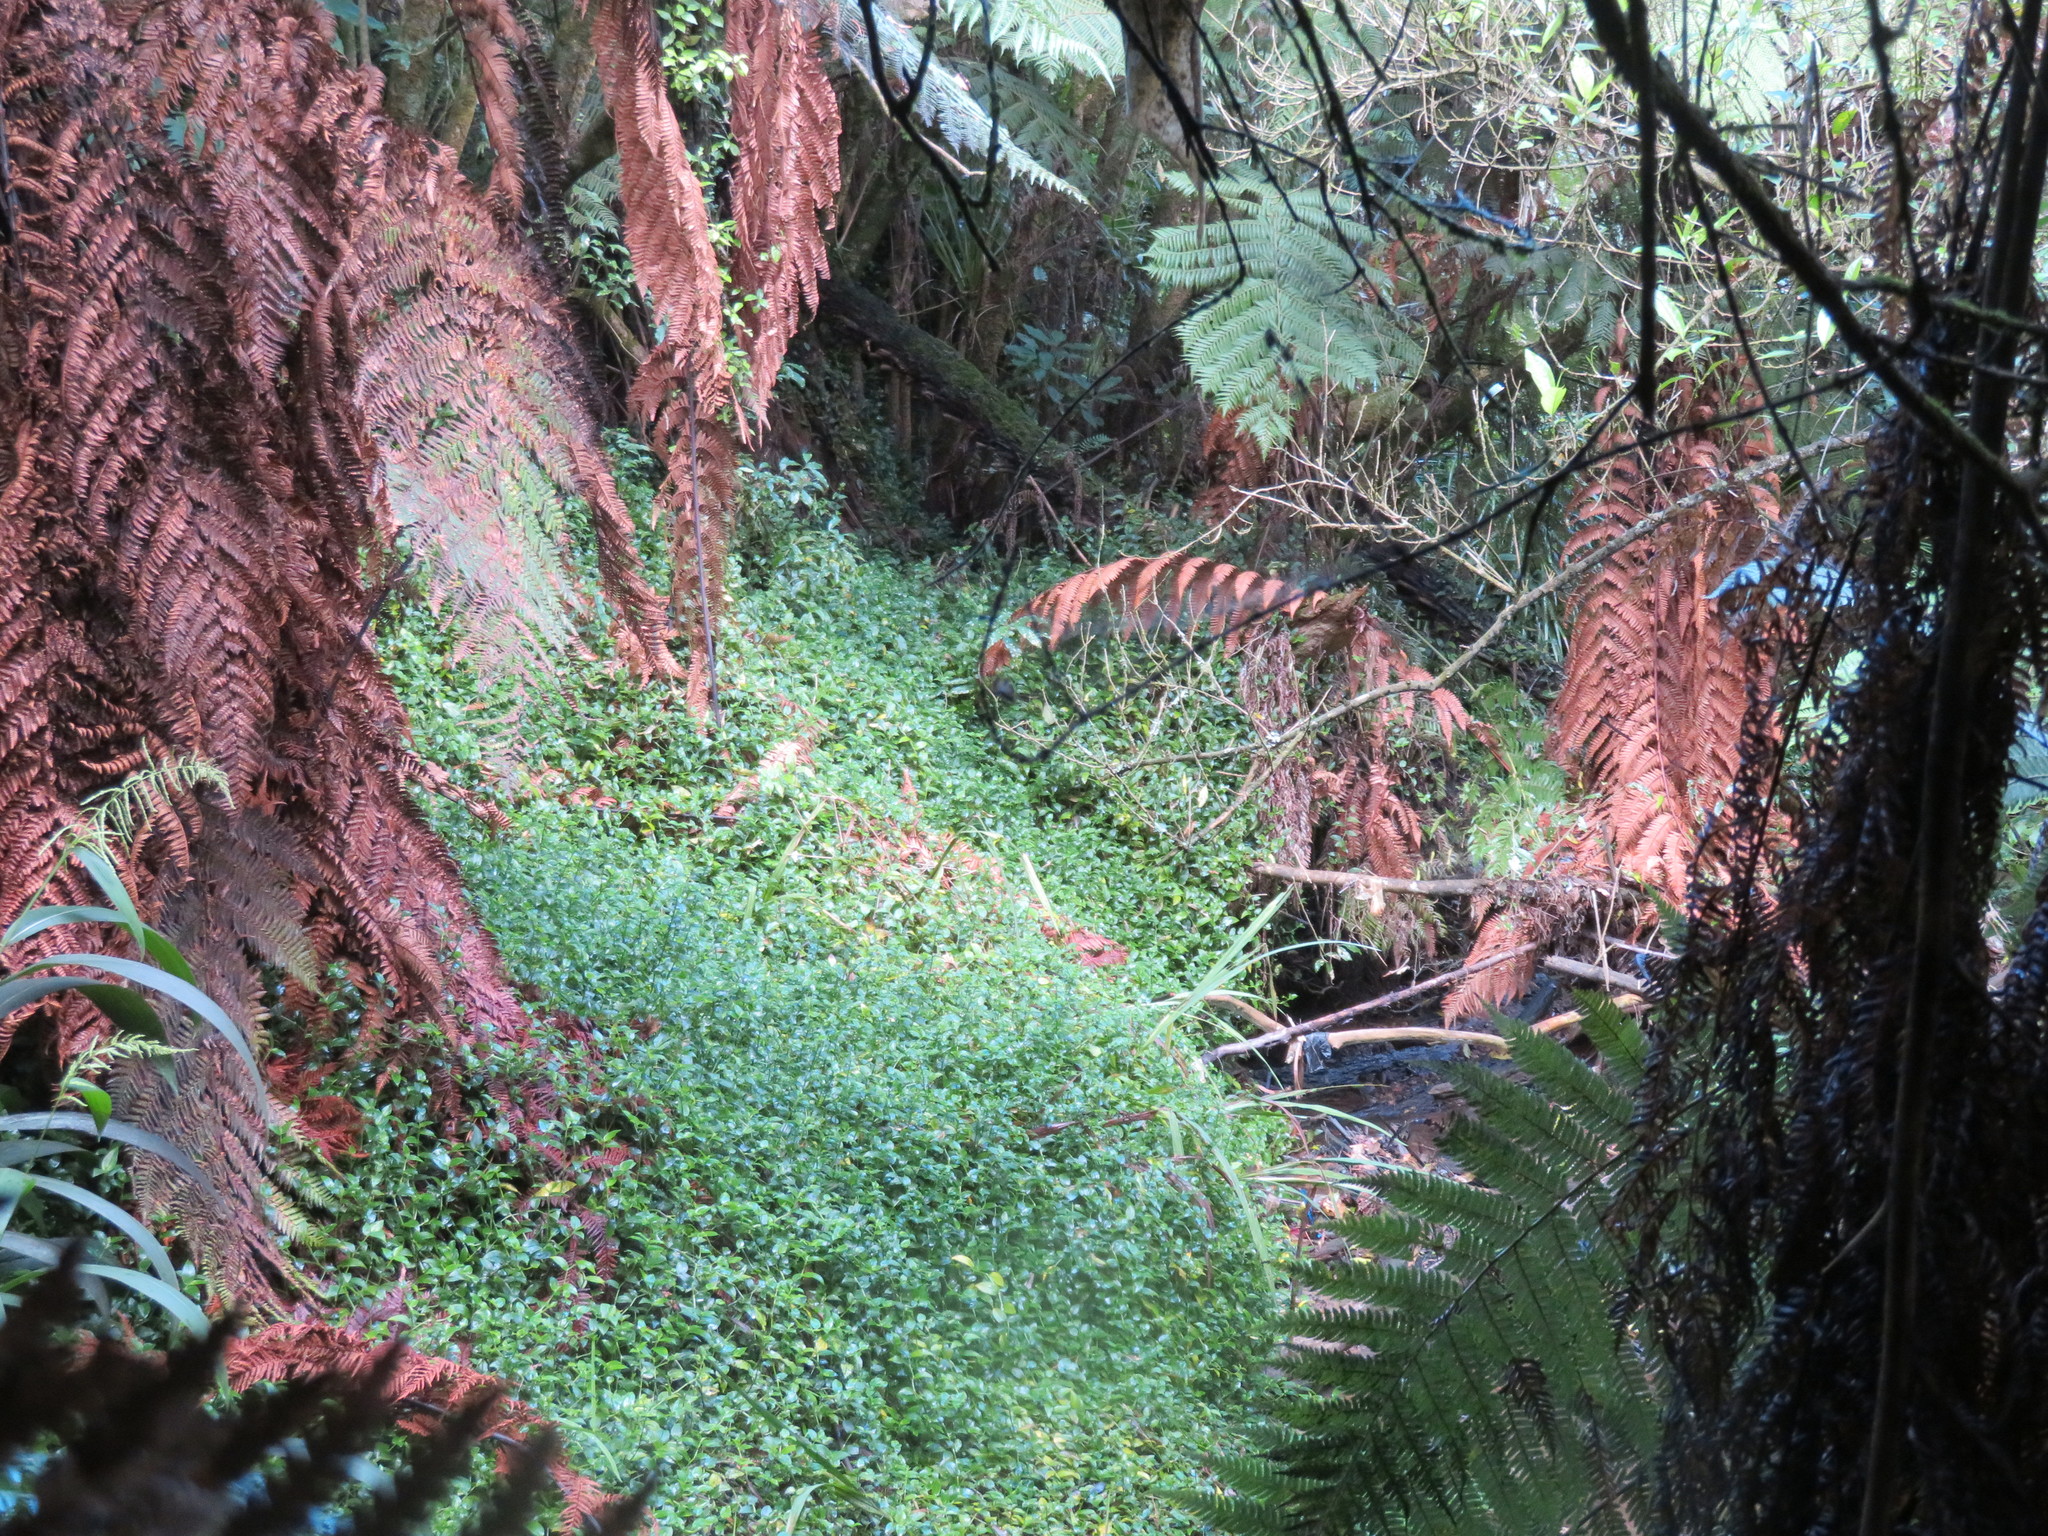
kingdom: Plantae
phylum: Tracheophyta
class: Liliopsida
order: Commelinales
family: Commelinaceae
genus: Tradescantia
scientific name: Tradescantia fluminensis
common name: Wandering-jew
